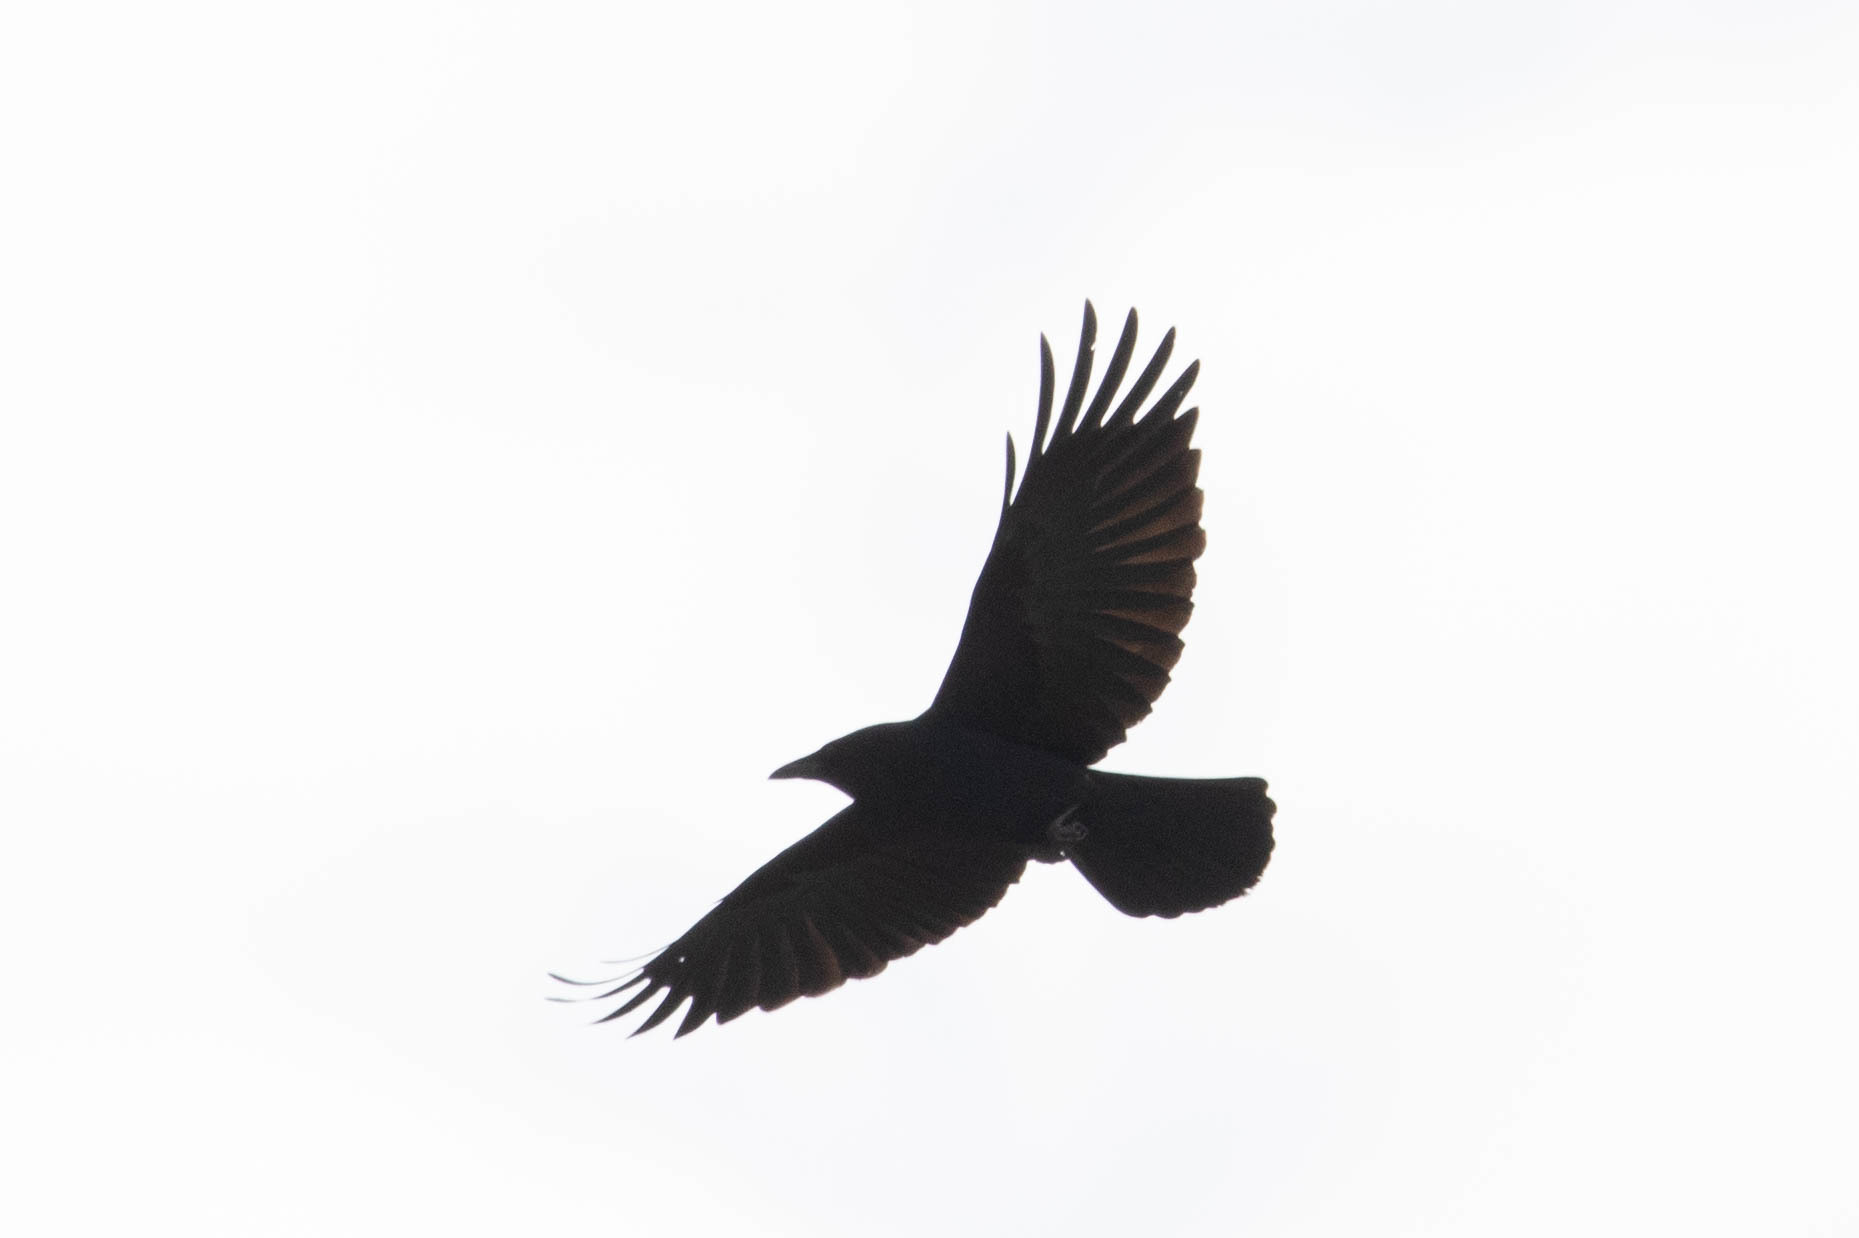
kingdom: Animalia
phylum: Chordata
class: Aves
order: Passeriformes
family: Corvidae
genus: Corvus
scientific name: Corvus brachyrhynchos
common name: American crow
